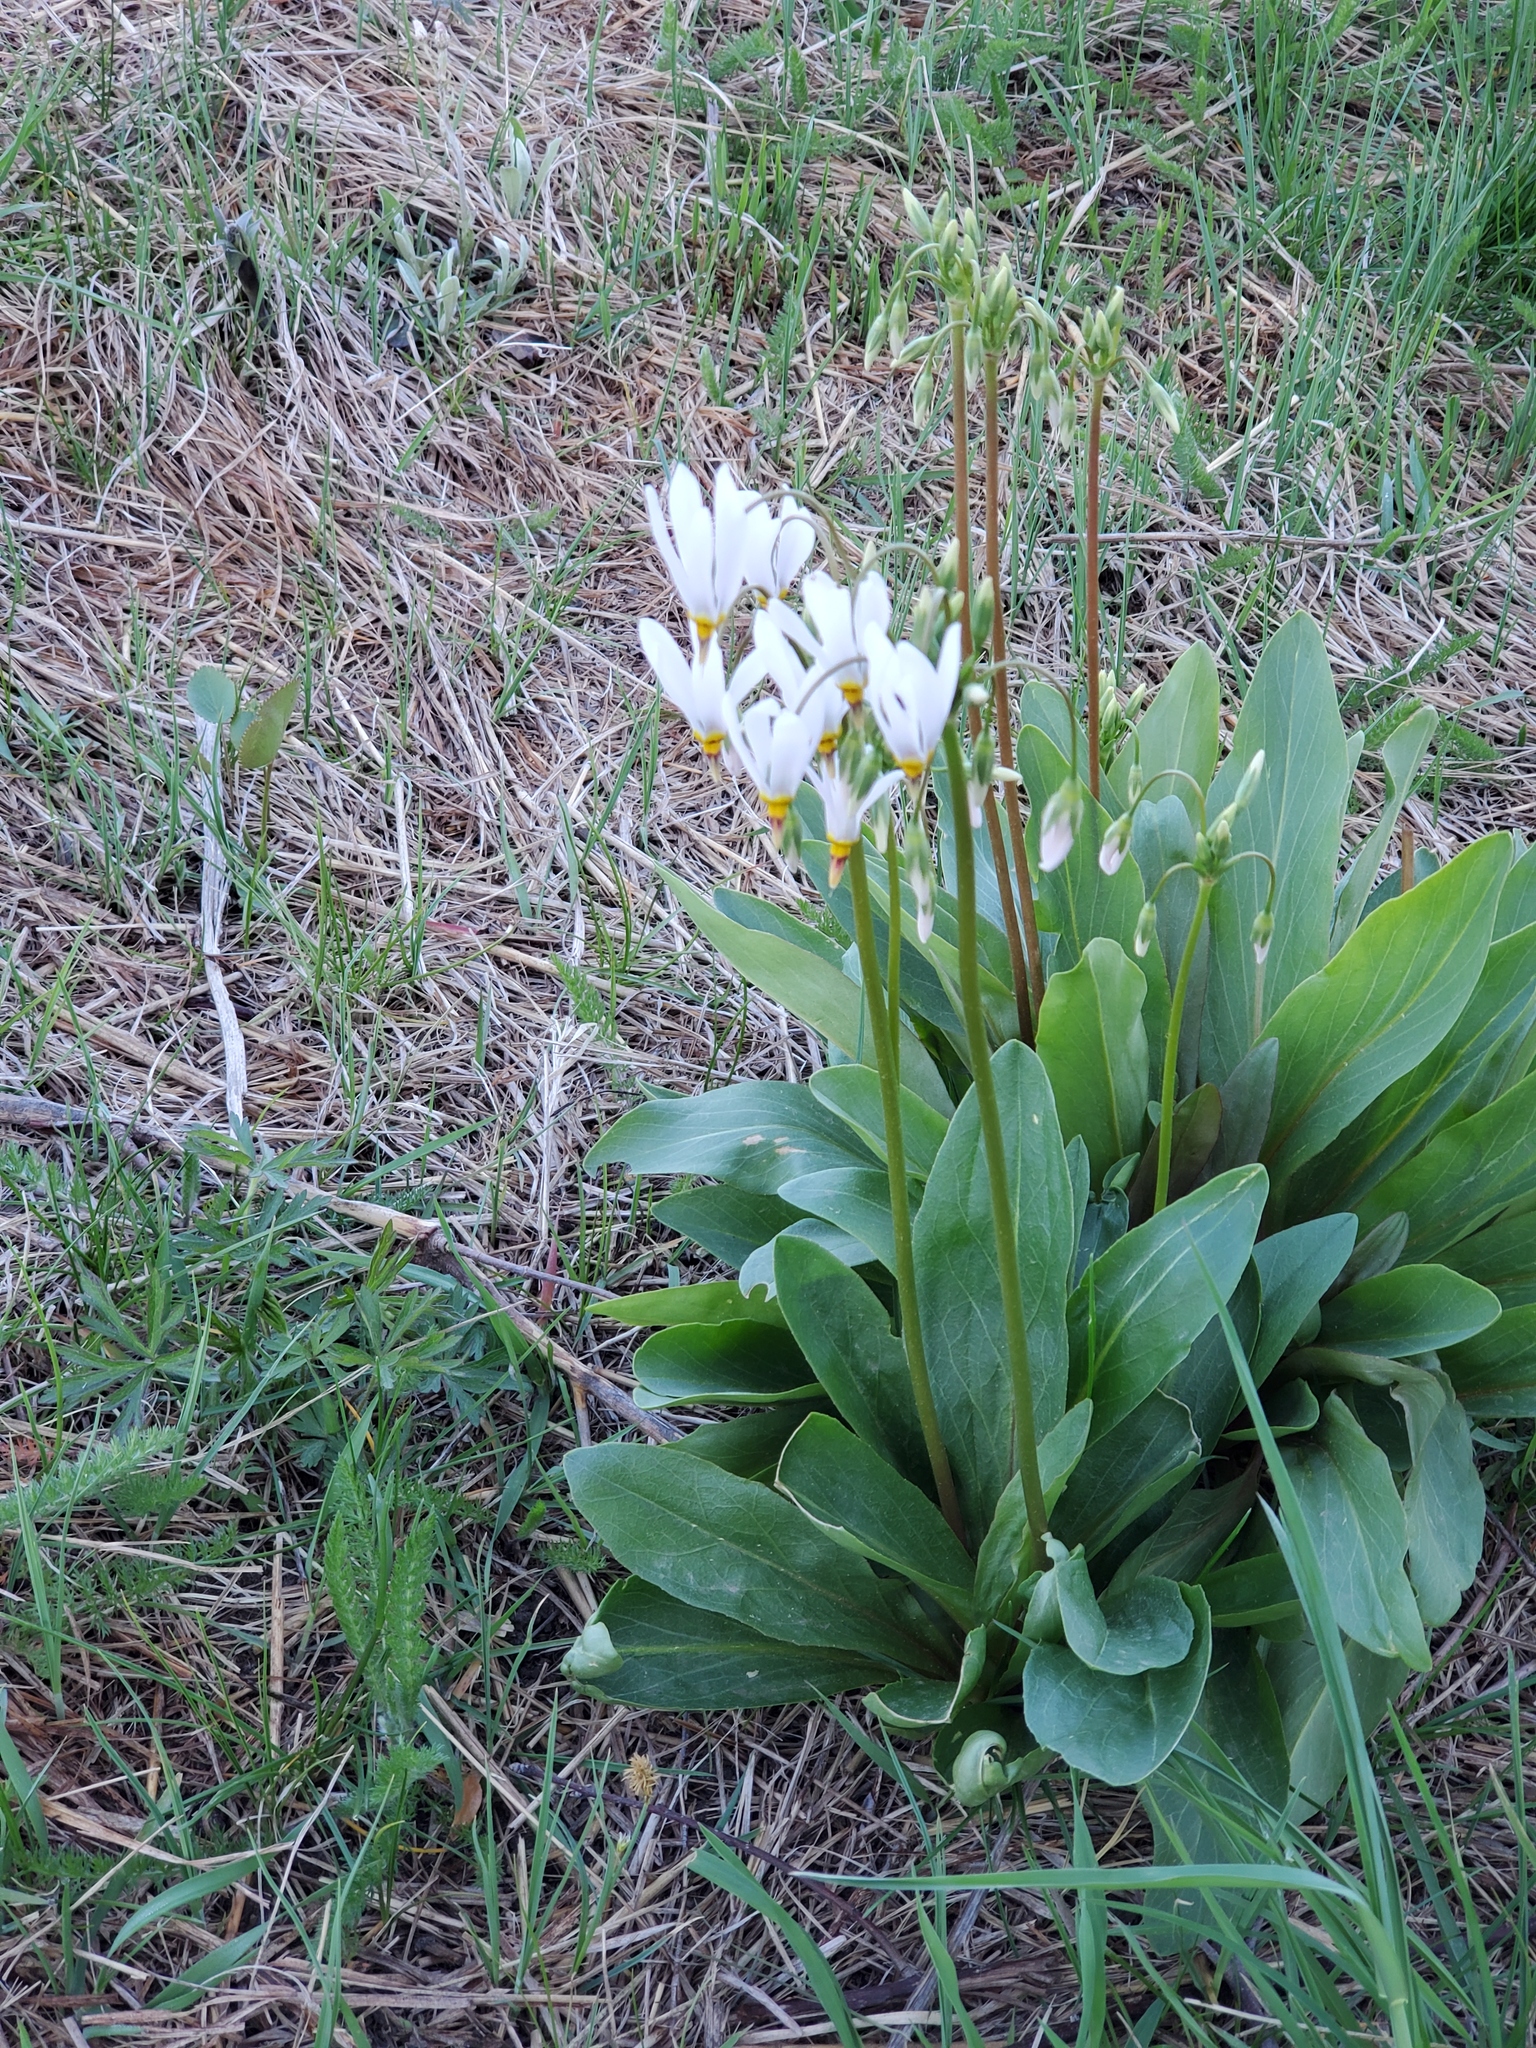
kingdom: Plantae
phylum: Tracheophyta
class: Magnoliopsida
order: Ericales
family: Primulaceae
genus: Dodecatheon
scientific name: Dodecatheon meadia
